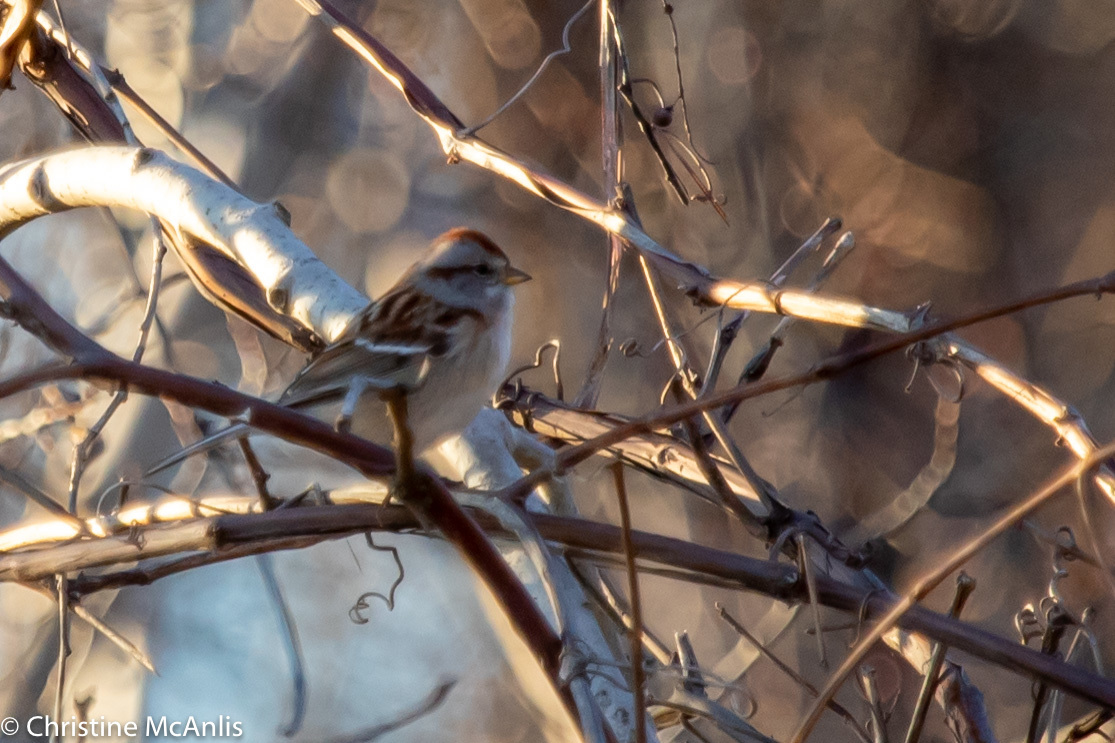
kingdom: Animalia
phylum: Chordata
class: Aves
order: Passeriformes
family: Passerellidae
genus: Spizelloides
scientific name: Spizelloides arborea
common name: American tree sparrow
